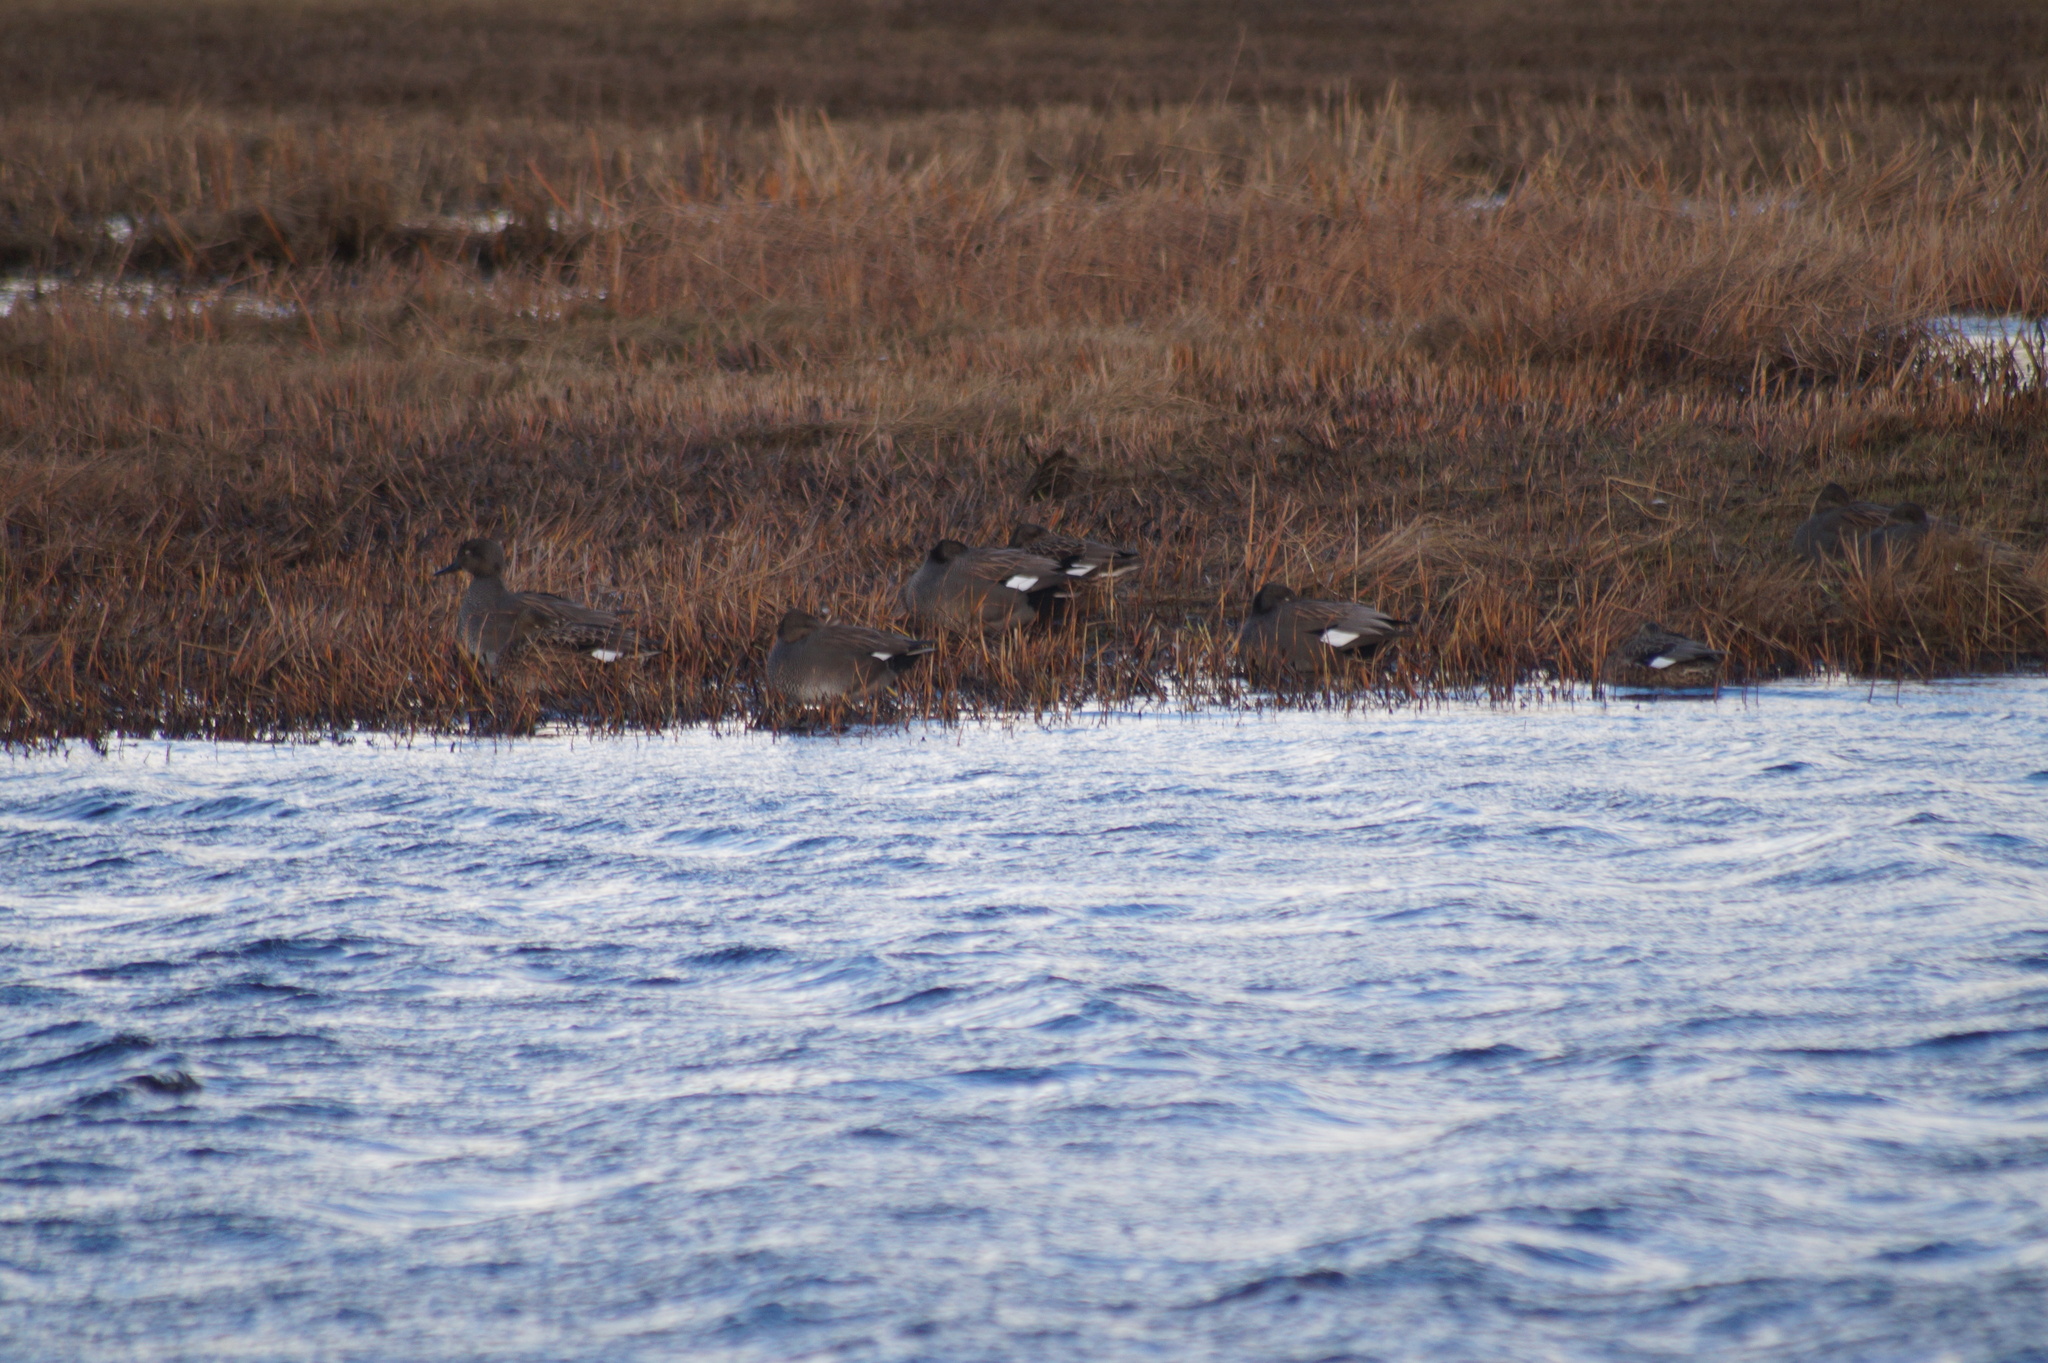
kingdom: Animalia
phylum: Chordata
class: Aves
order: Anseriformes
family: Anatidae
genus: Mareca
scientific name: Mareca strepera
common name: Gadwall
